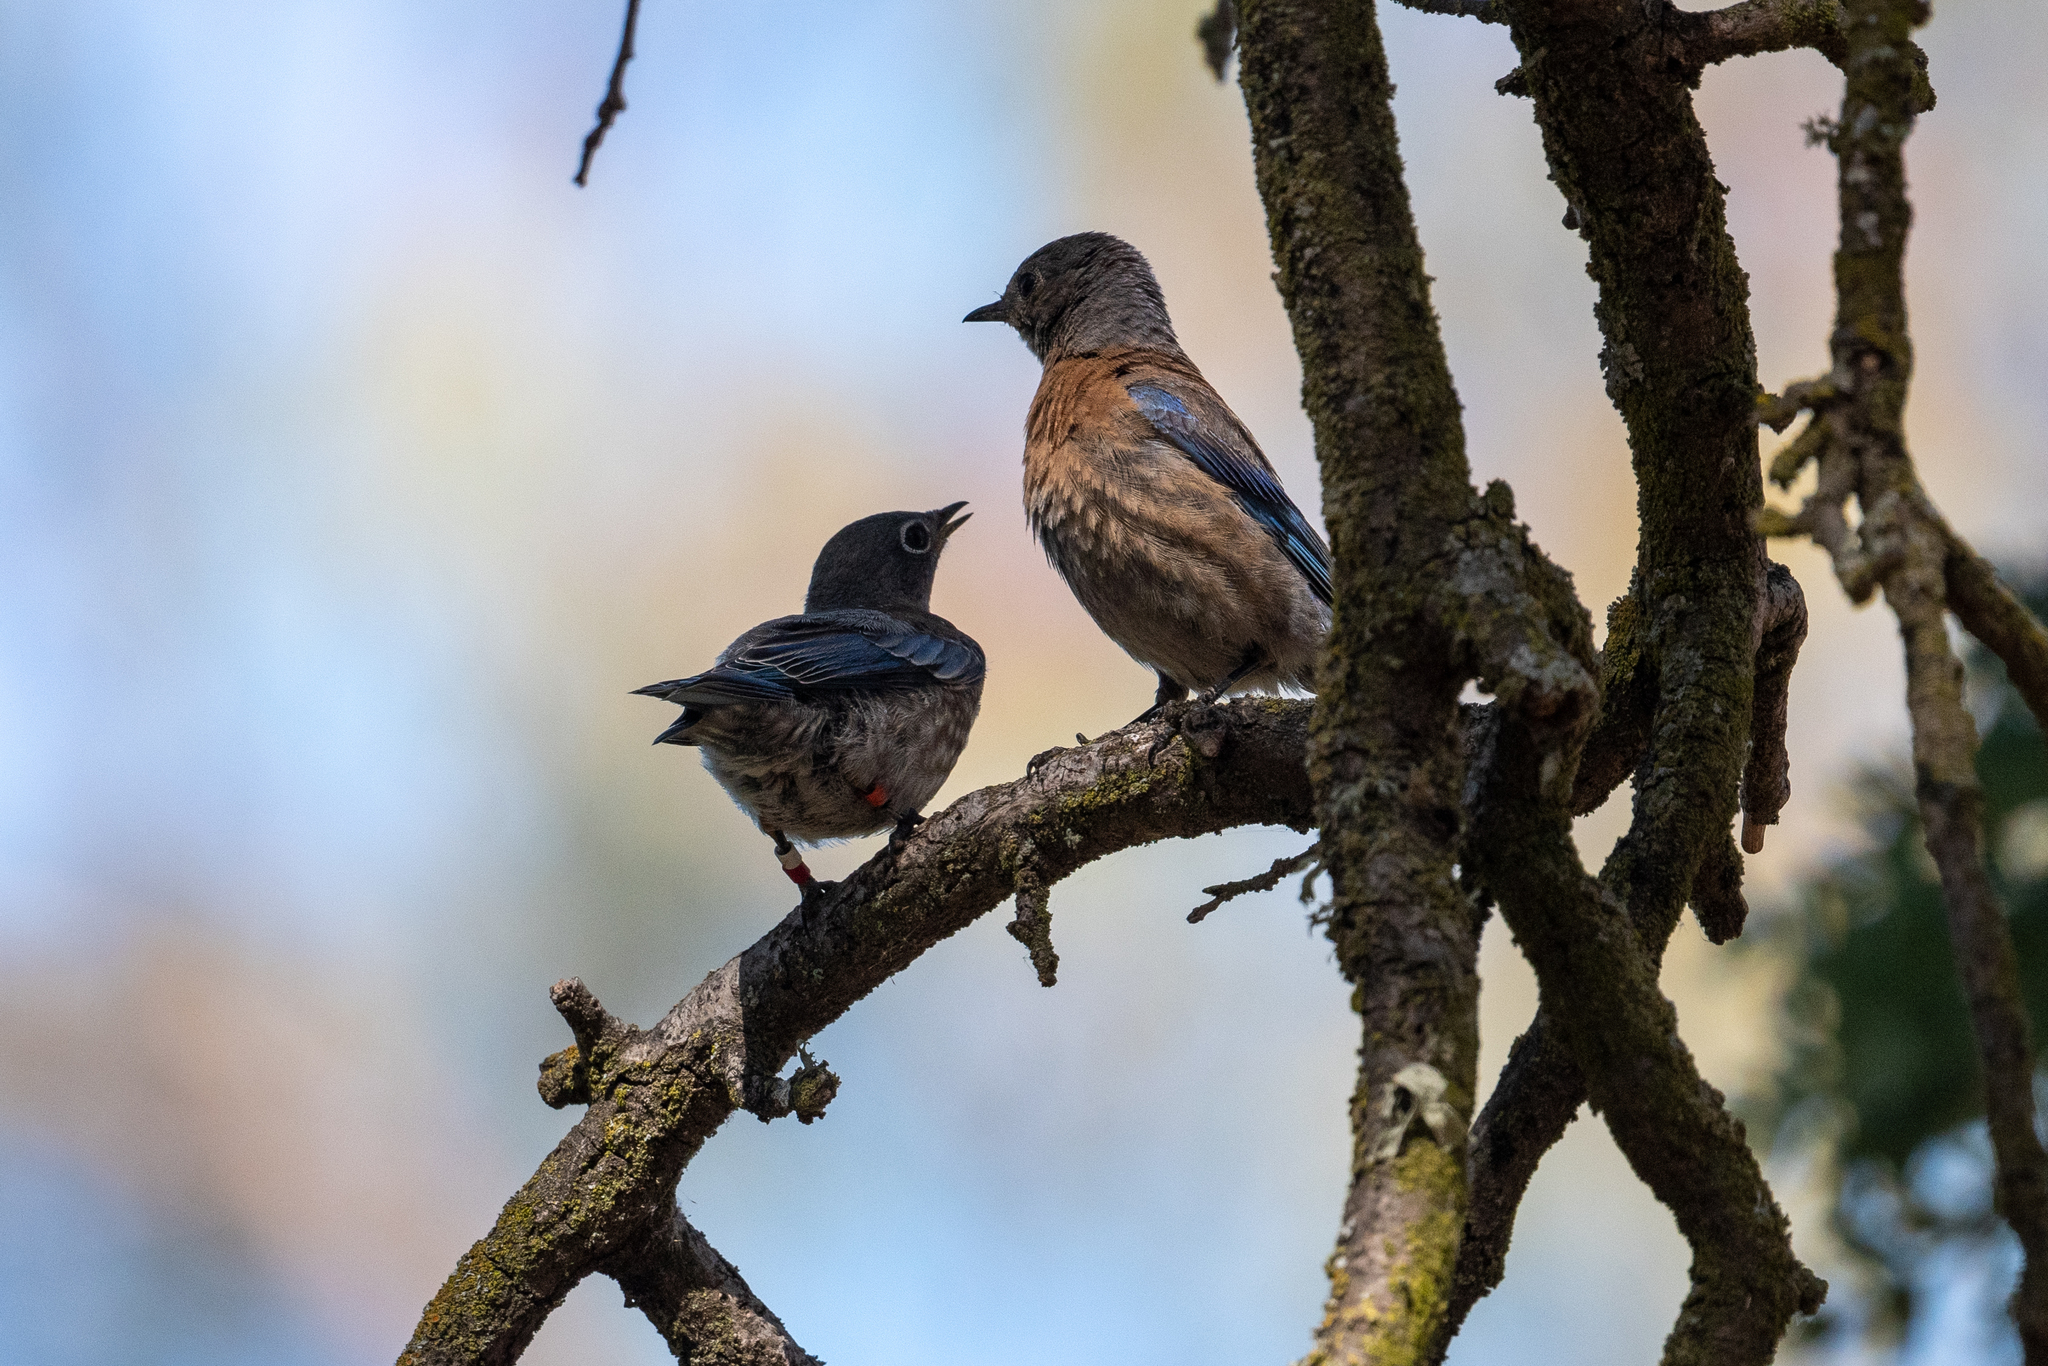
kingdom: Animalia
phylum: Chordata
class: Aves
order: Passeriformes
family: Turdidae
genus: Sialia
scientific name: Sialia mexicana
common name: Western bluebird
